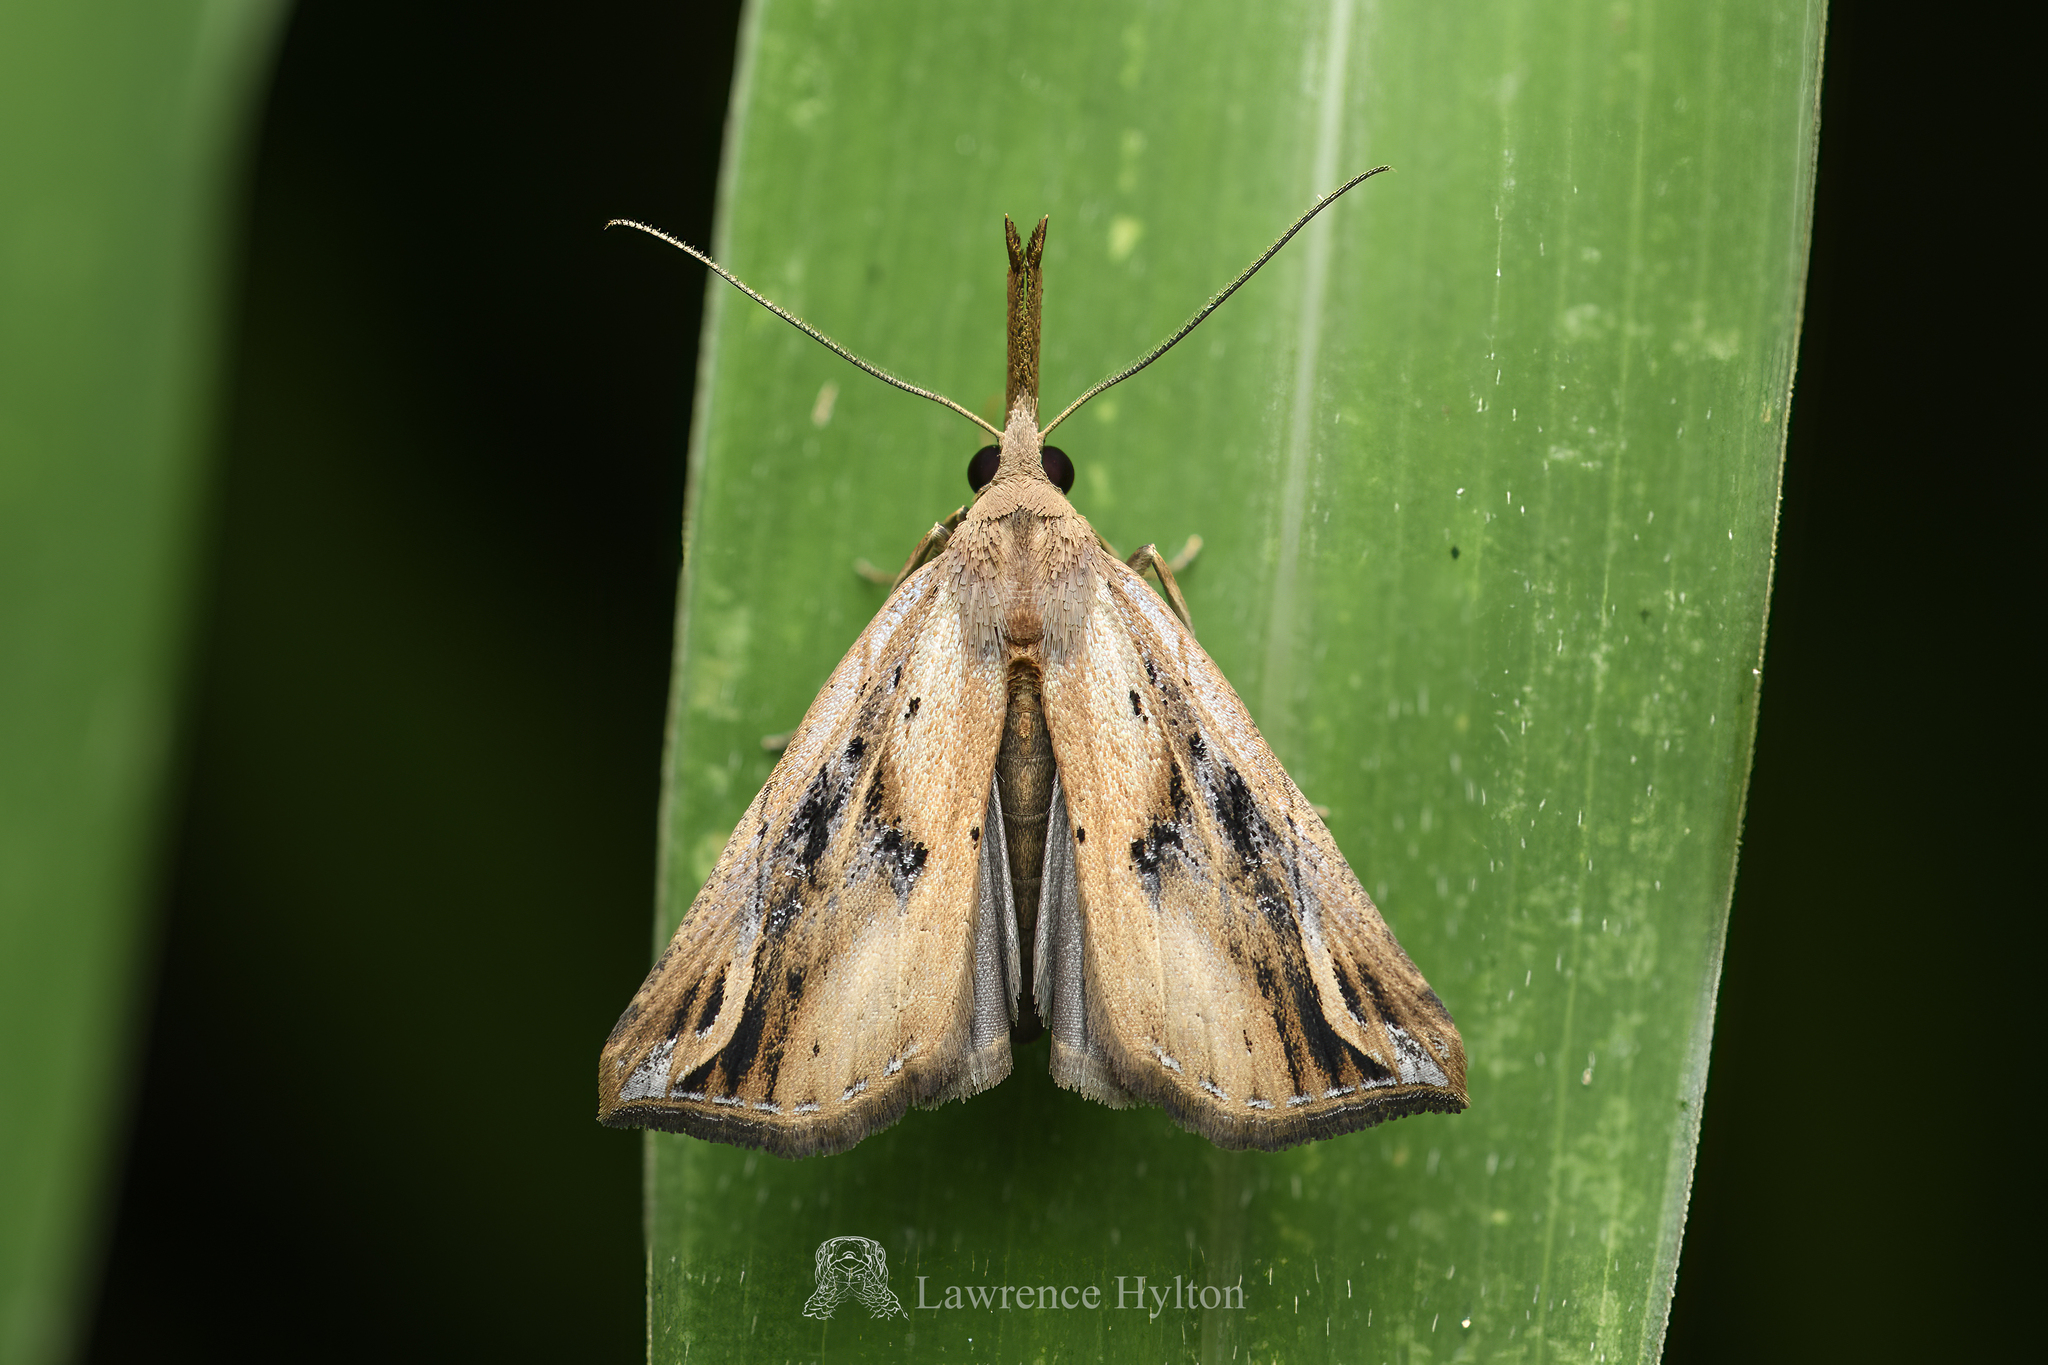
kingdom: Animalia
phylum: Arthropoda
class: Insecta
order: Lepidoptera
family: Erebidae
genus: Hypena
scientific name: Hypena labatalis
